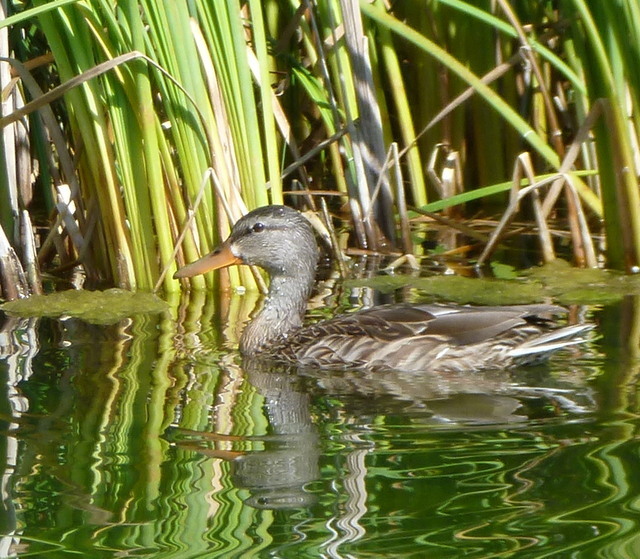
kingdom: Animalia
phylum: Chordata
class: Aves
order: Anseriformes
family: Anatidae
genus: Anas
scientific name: Anas platyrhynchos
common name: Mallard
